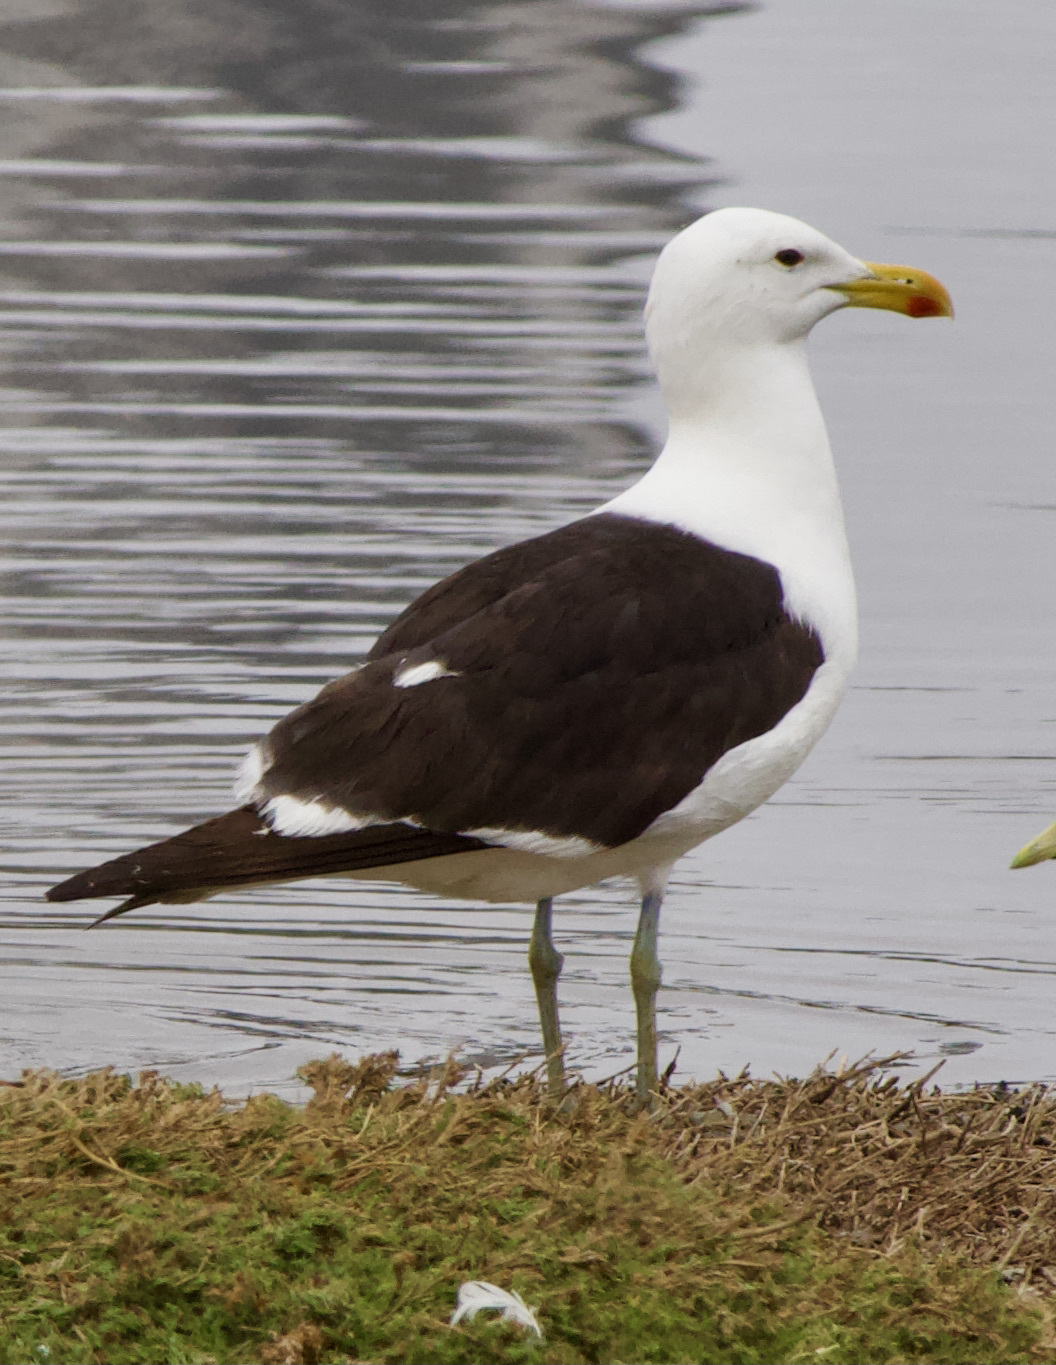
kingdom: Animalia
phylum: Chordata
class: Aves
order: Charadriiformes
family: Laridae
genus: Larus
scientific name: Larus dominicanus
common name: Kelp gull
